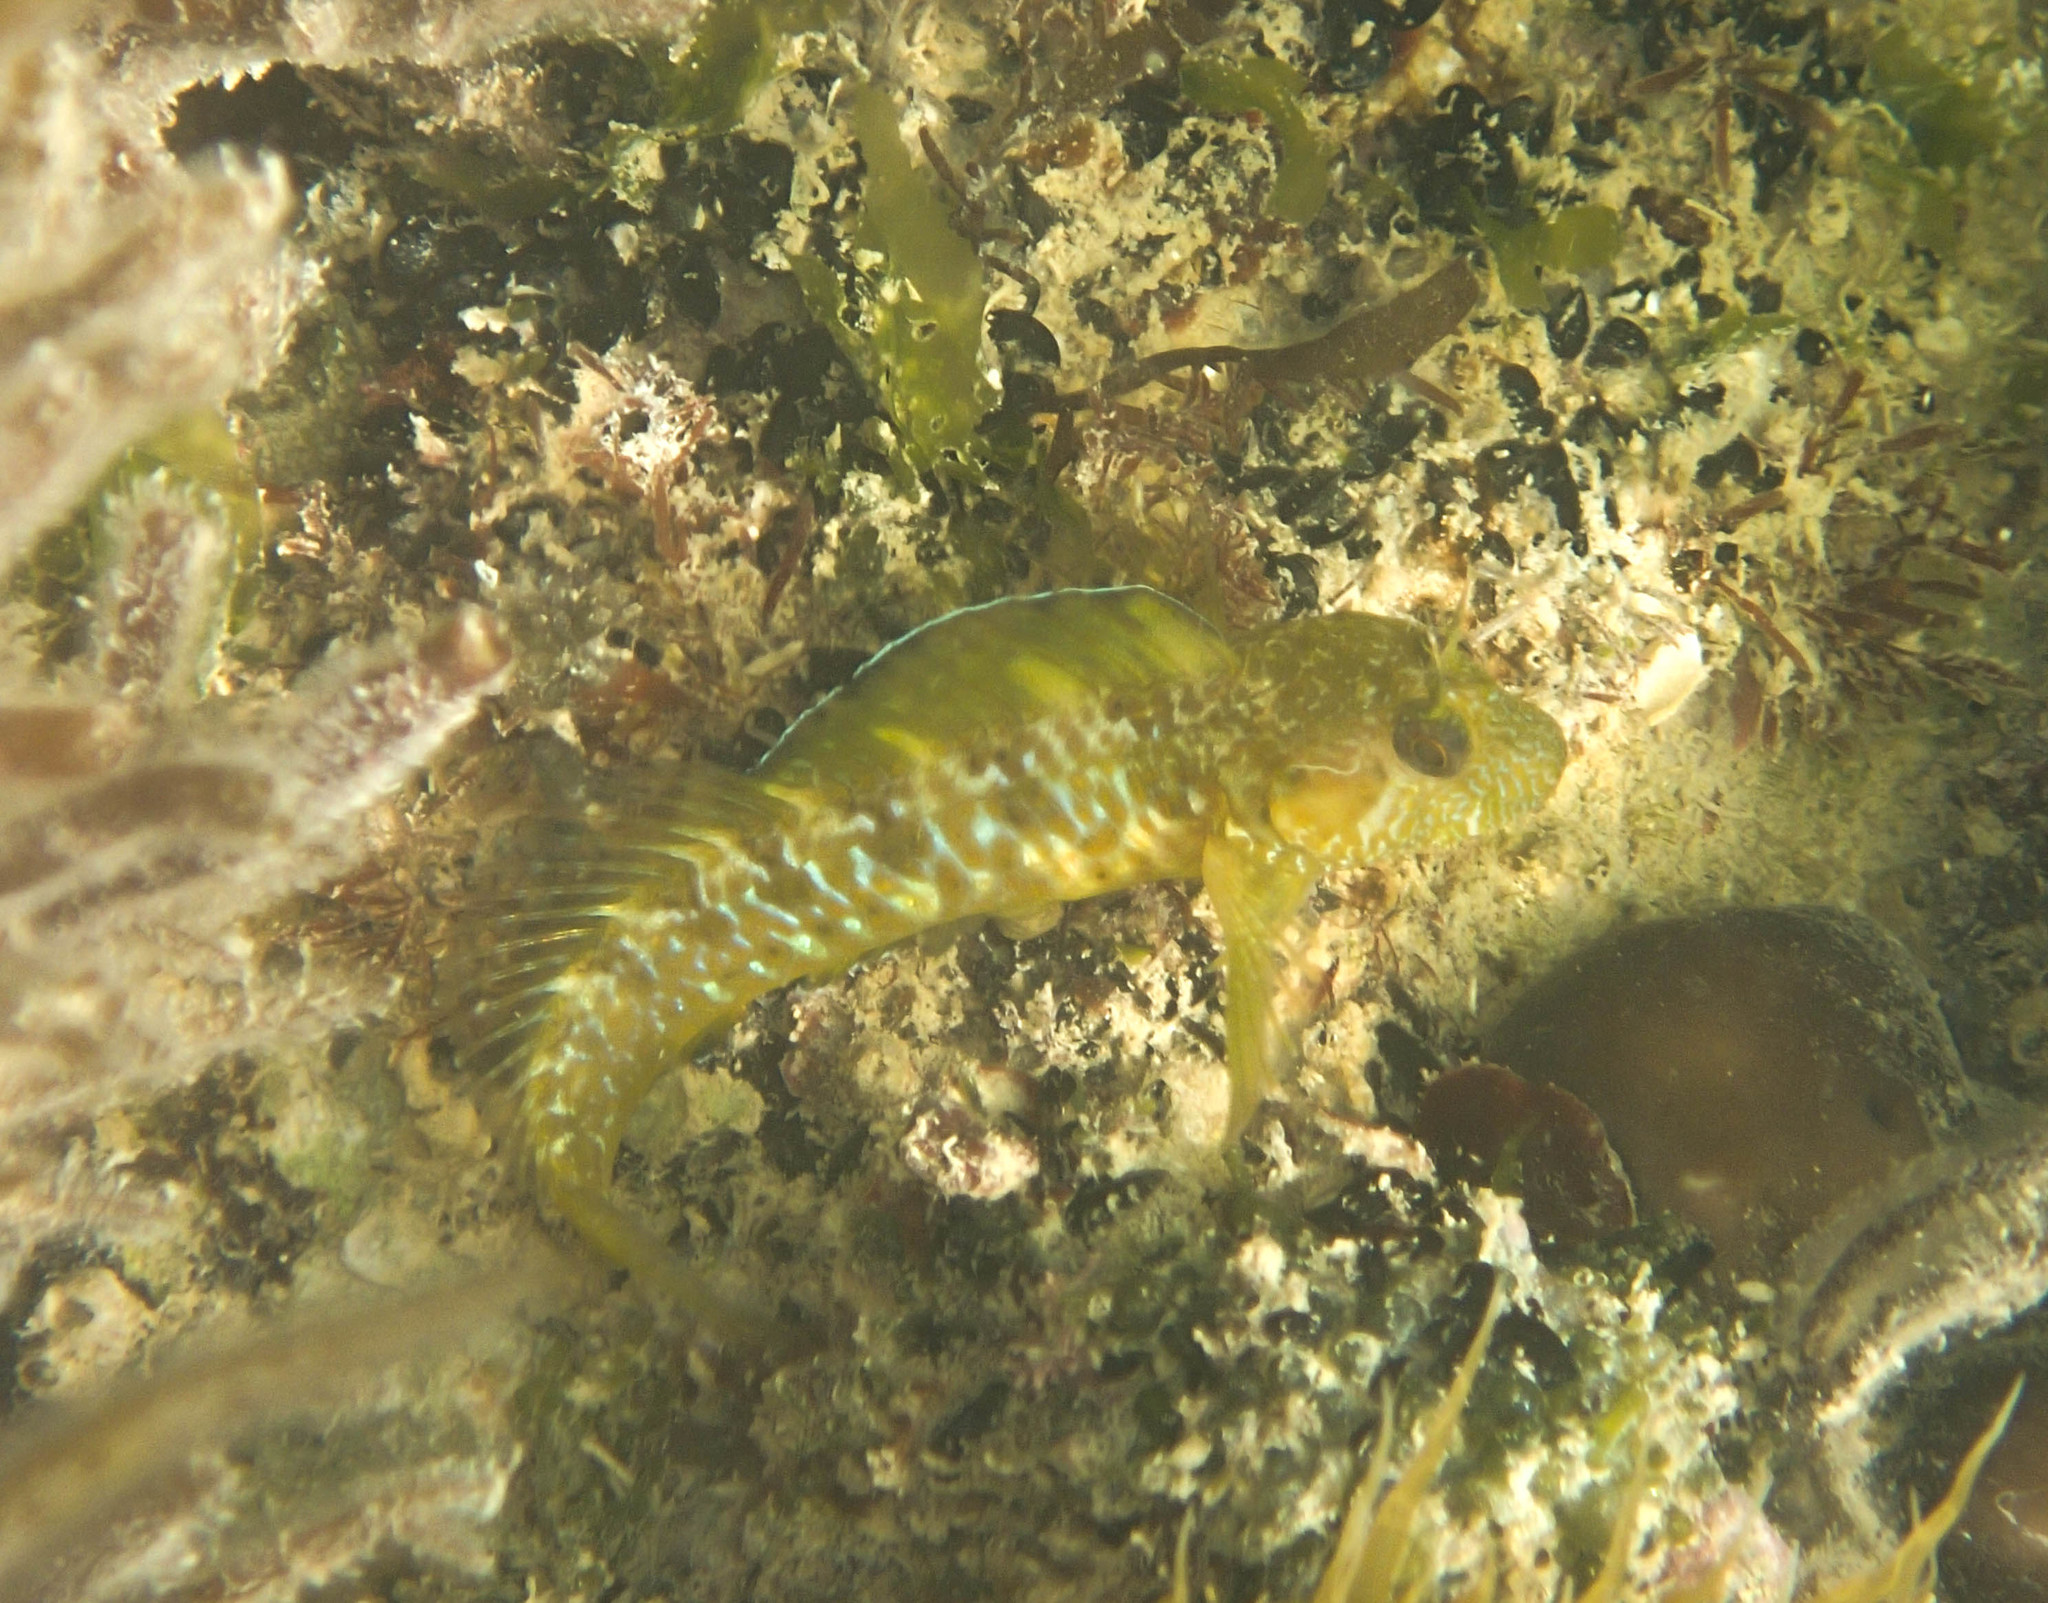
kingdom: Animalia
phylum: Chordata
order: Perciformes
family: Blenniidae
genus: Parablennius
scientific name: Parablennius incognitus
